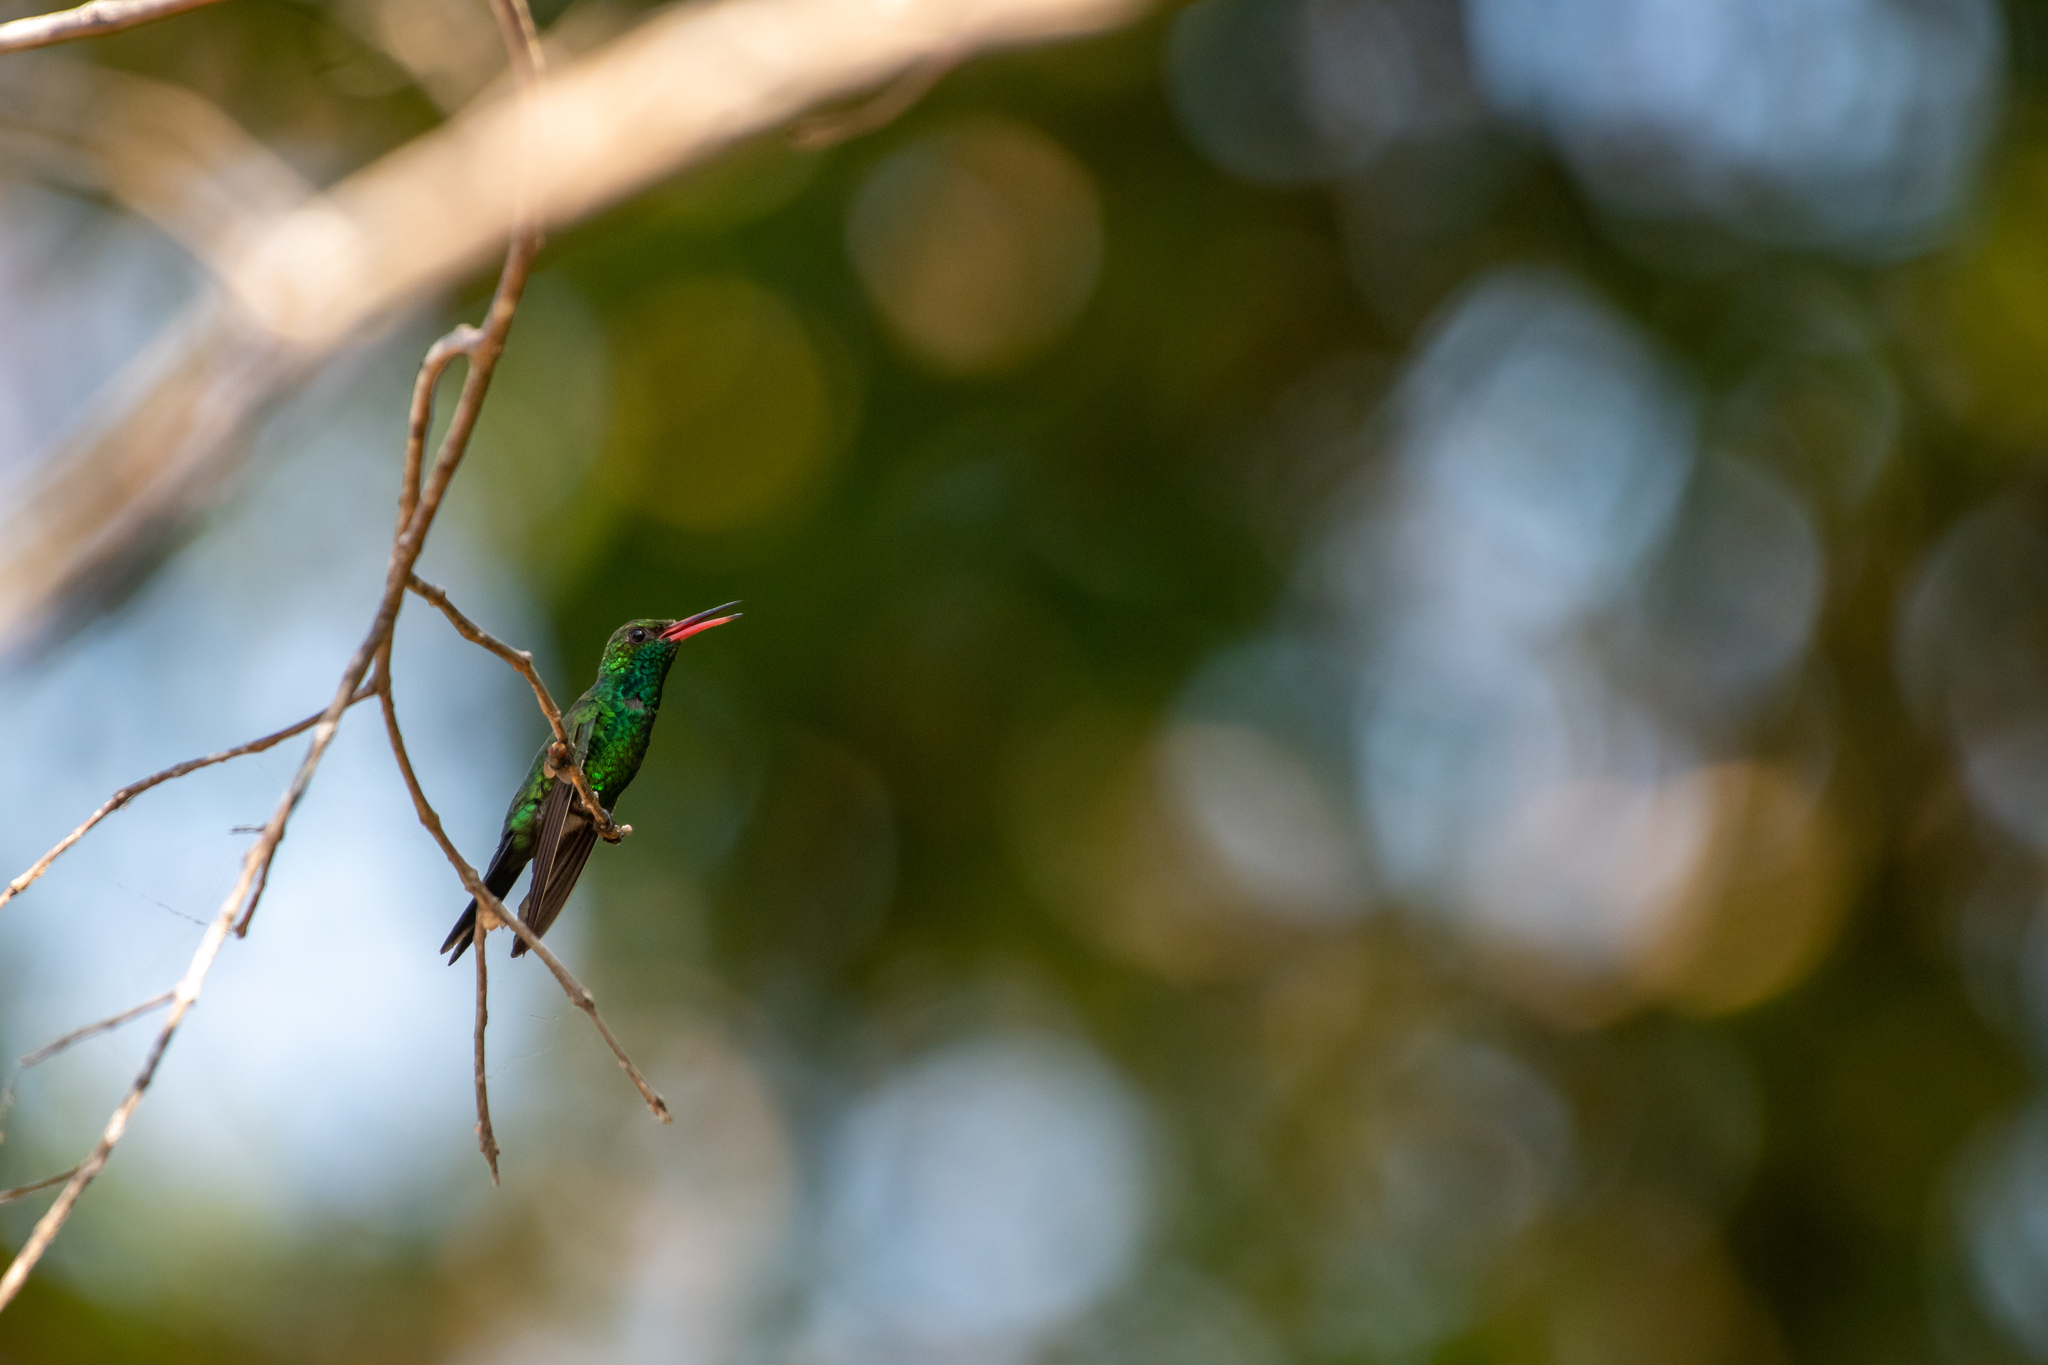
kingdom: Animalia
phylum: Chordata
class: Aves
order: Apodiformes
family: Trochilidae
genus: Cynanthus
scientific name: Cynanthus canivetii
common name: Canivet's emerald
